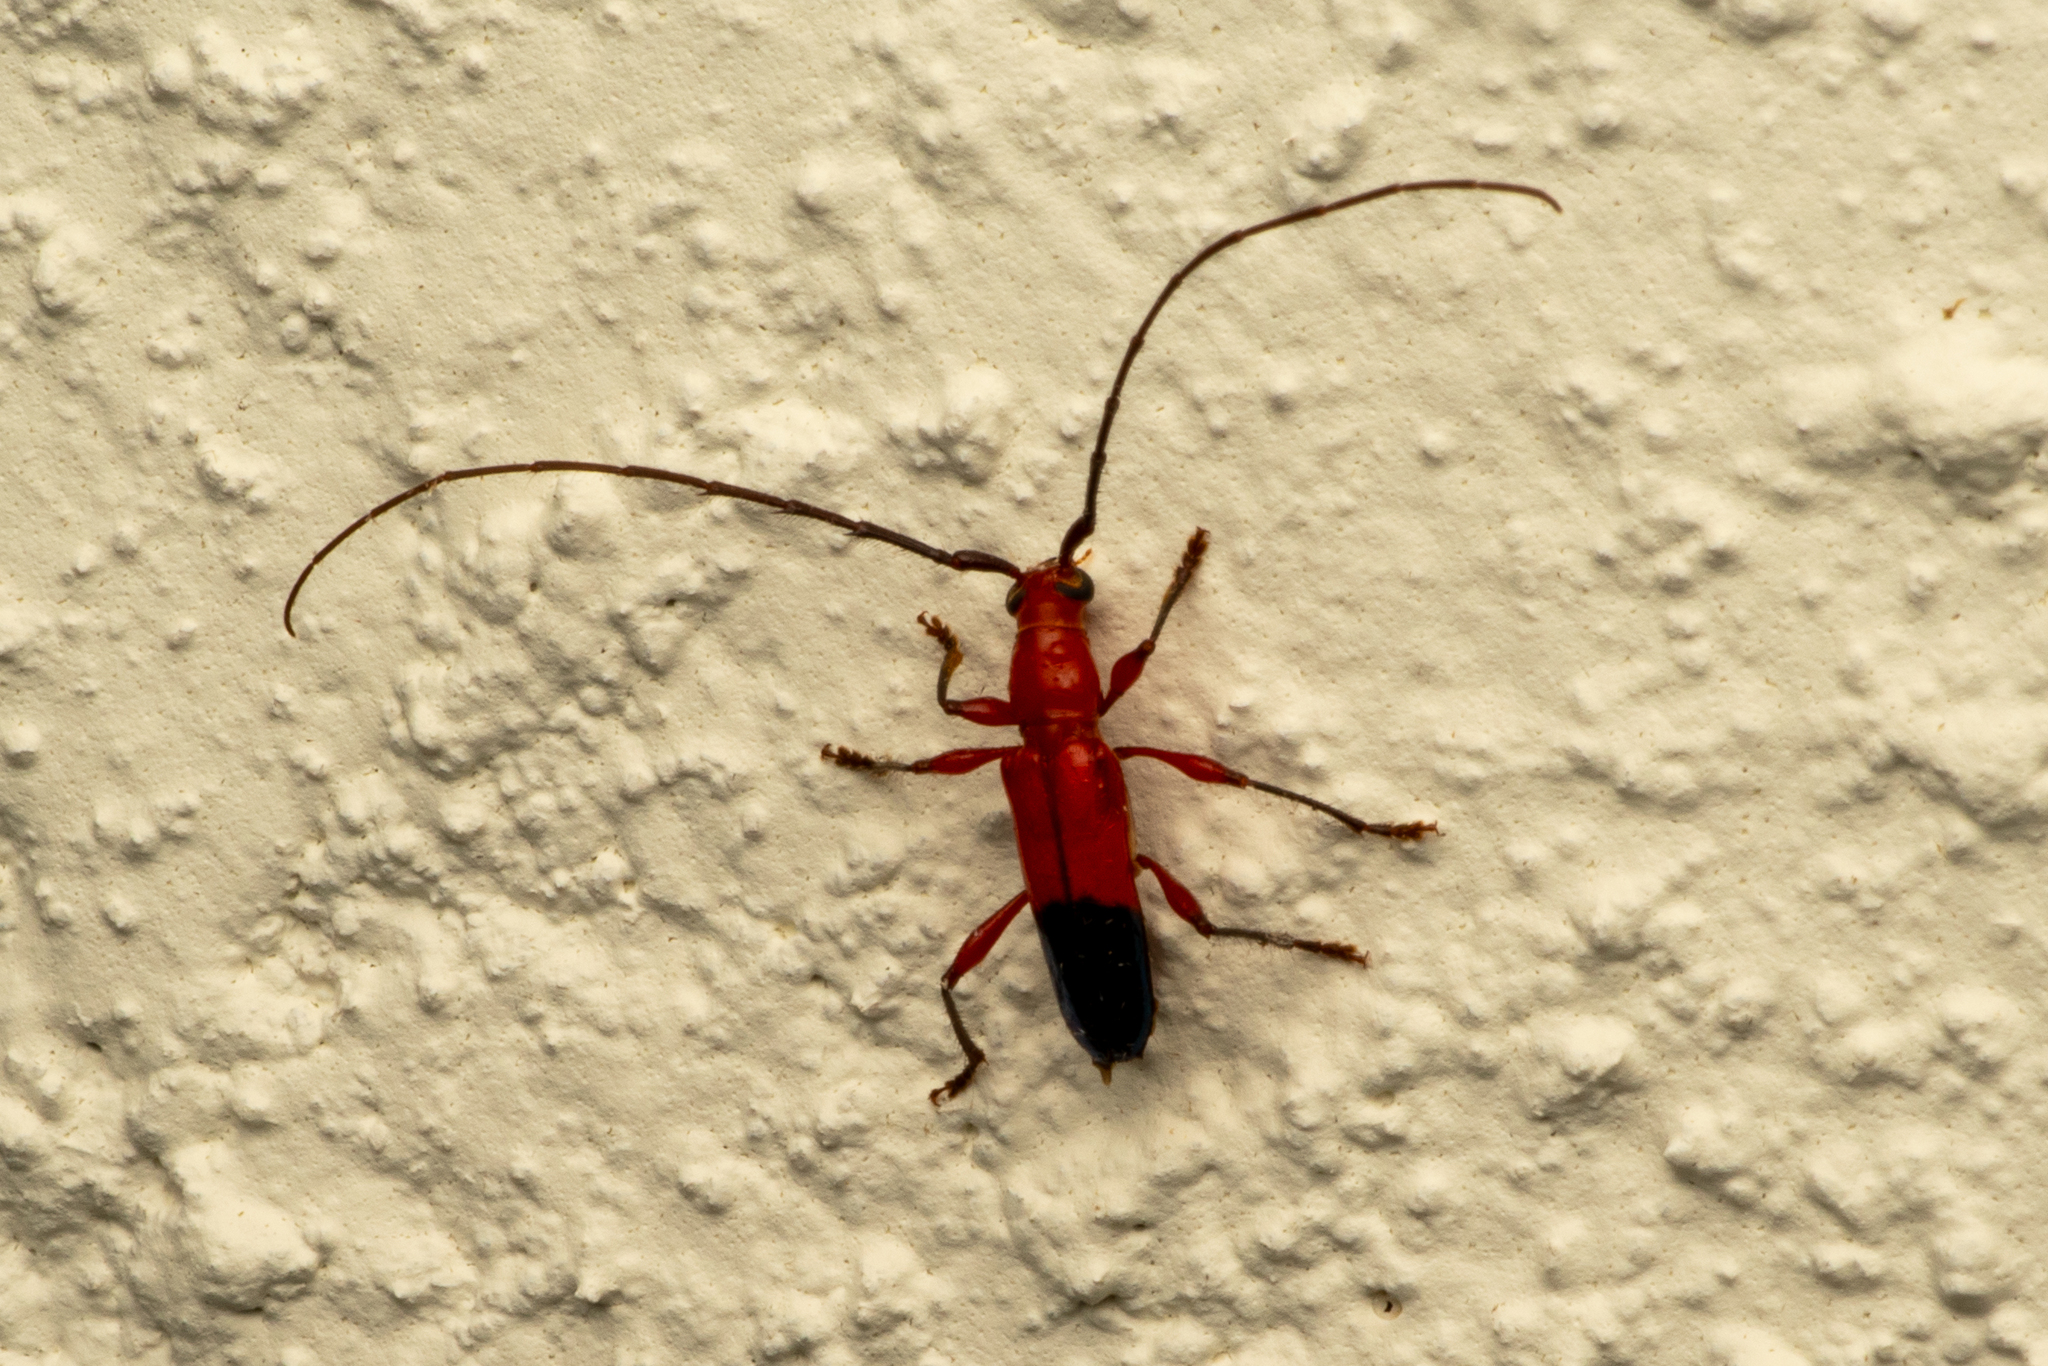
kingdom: Animalia
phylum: Arthropoda
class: Insecta
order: Coleoptera
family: Cerambycidae
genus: Plectrocerum
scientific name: Plectrocerum spinicorne
